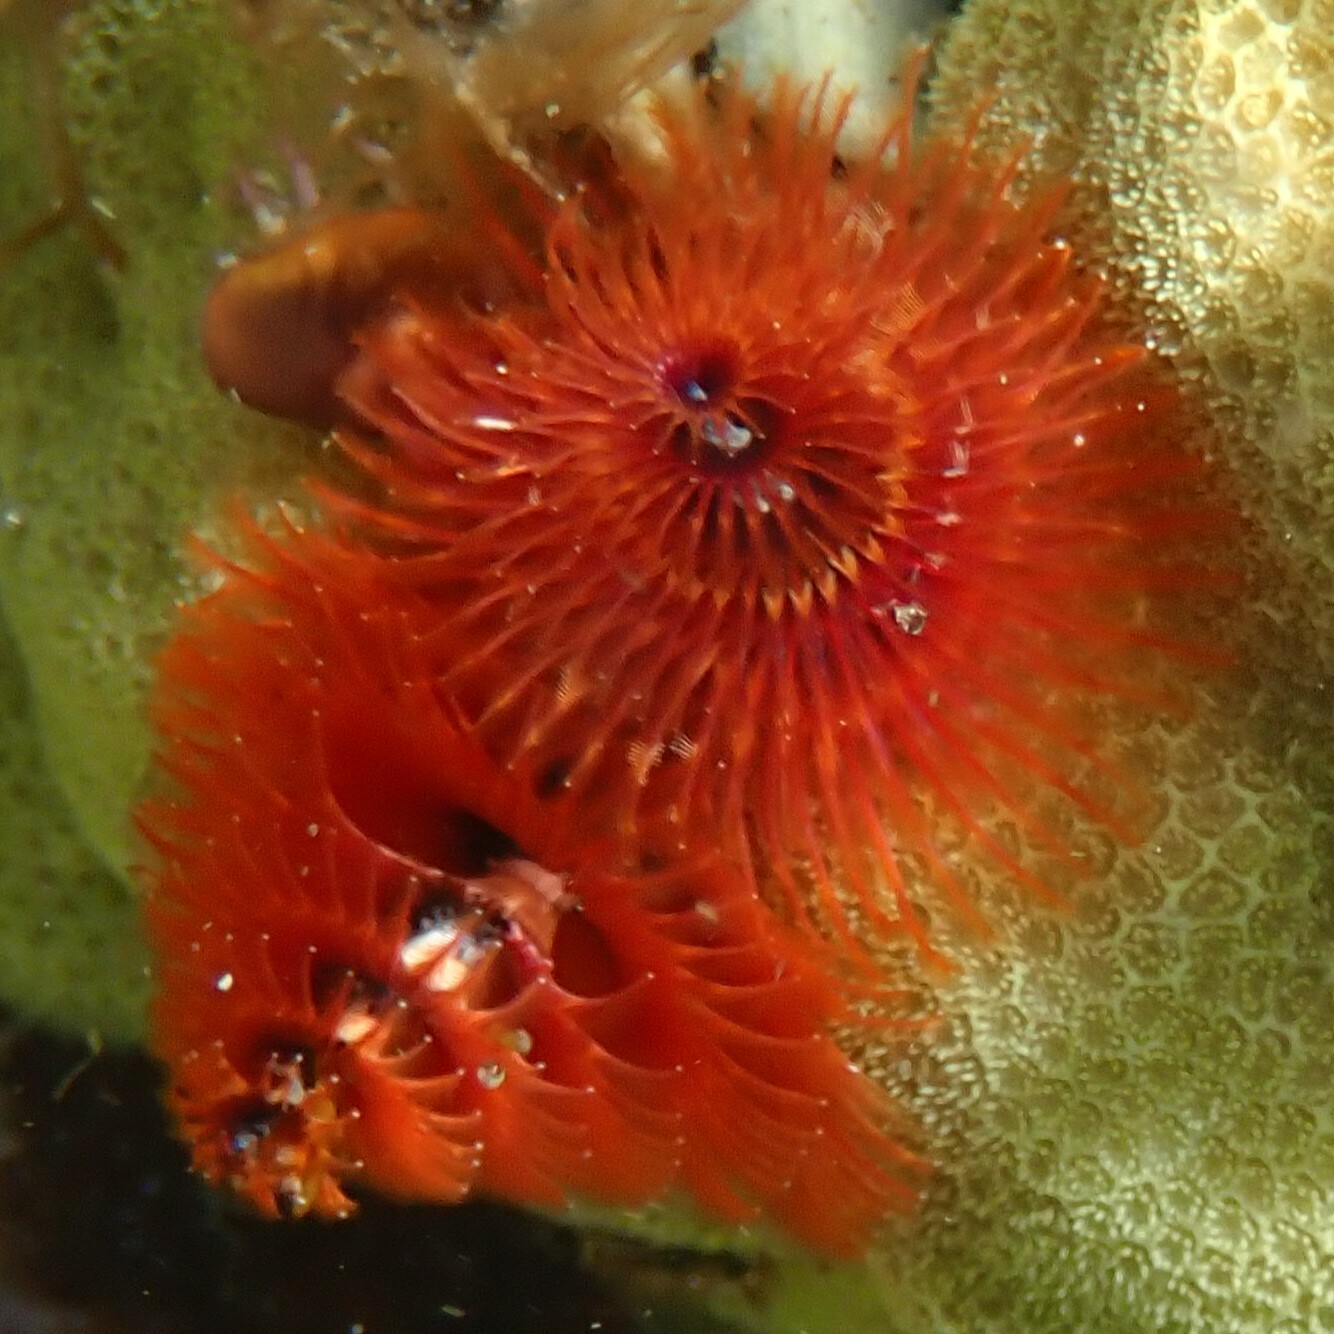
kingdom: Animalia
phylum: Annelida
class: Polychaeta
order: Sabellida
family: Serpulidae
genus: Spirobranchus
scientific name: Spirobranchus
